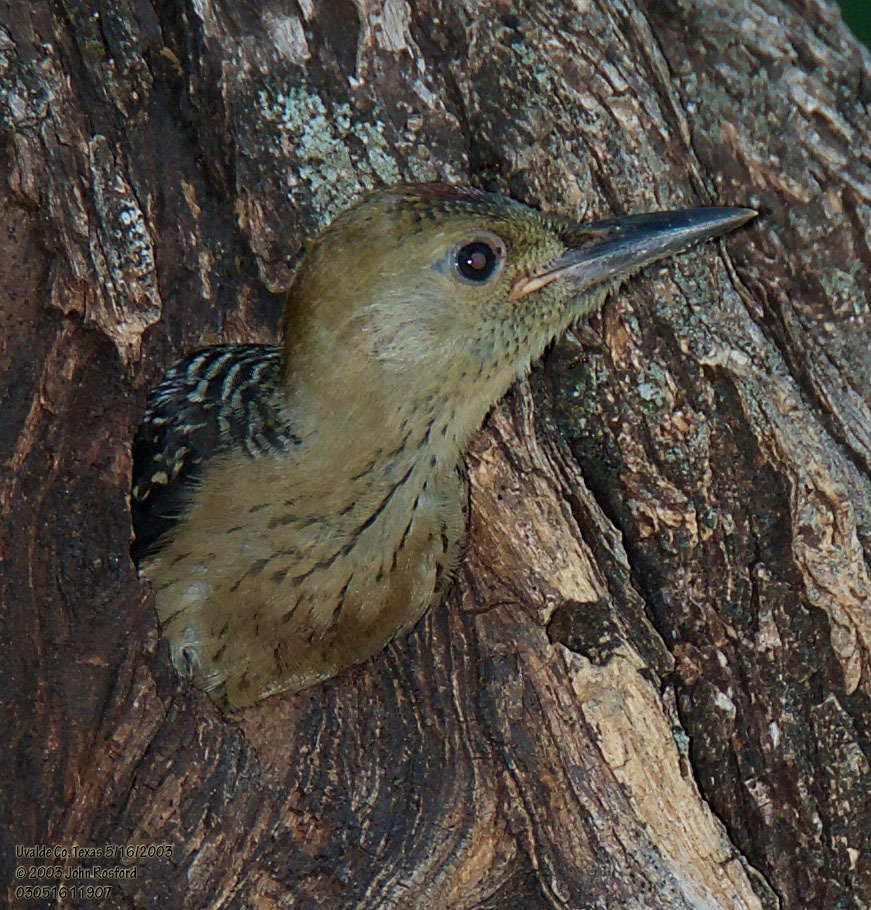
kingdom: Animalia
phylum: Chordata
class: Aves
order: Piciformes
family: Picidae
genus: Melanerpes
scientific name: Melanerpes aurifrons
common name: Golden-fronted woodpecker
